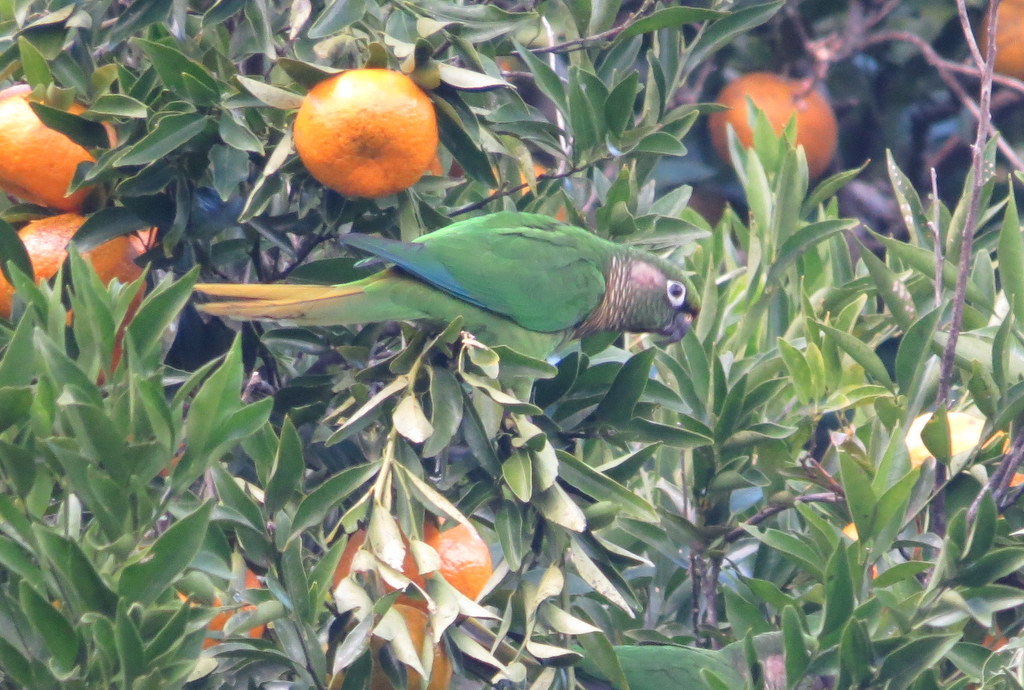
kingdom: Animalia
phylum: Chordata
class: Aves
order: Psittaciformes
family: Psittacidae
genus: Pyrrhura
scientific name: Pyrrhura frontalis
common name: Maroon-bellied parakeet
